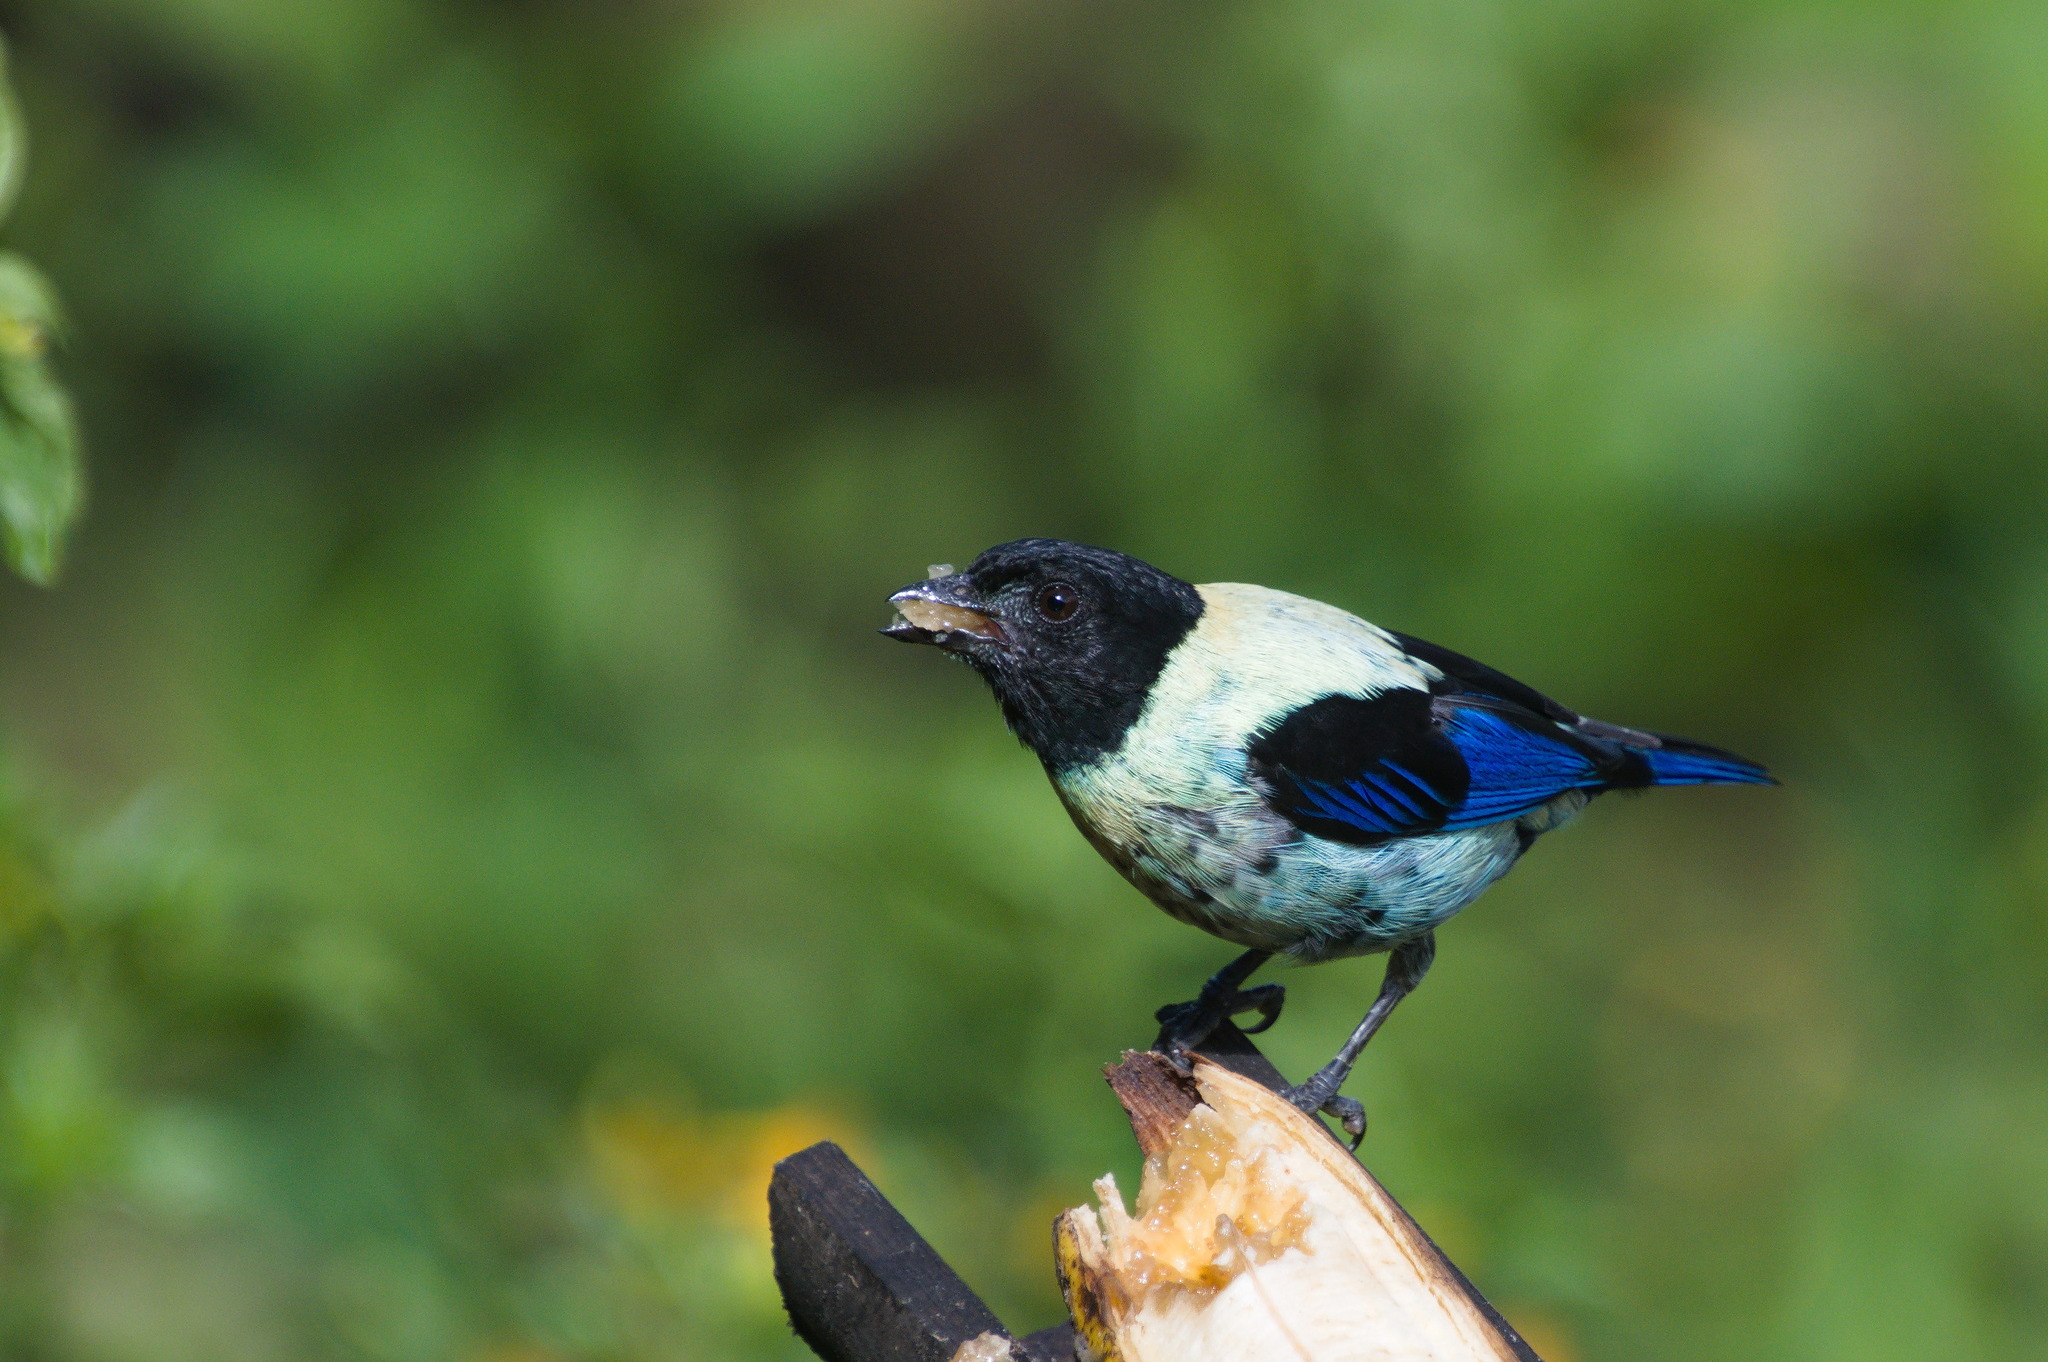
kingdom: Animalia
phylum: Chordata
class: Aves
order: Passeriformes
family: Thraupidae
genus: Stilpnia
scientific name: Stilpnia cyanoptera
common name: Black-headed tanager
